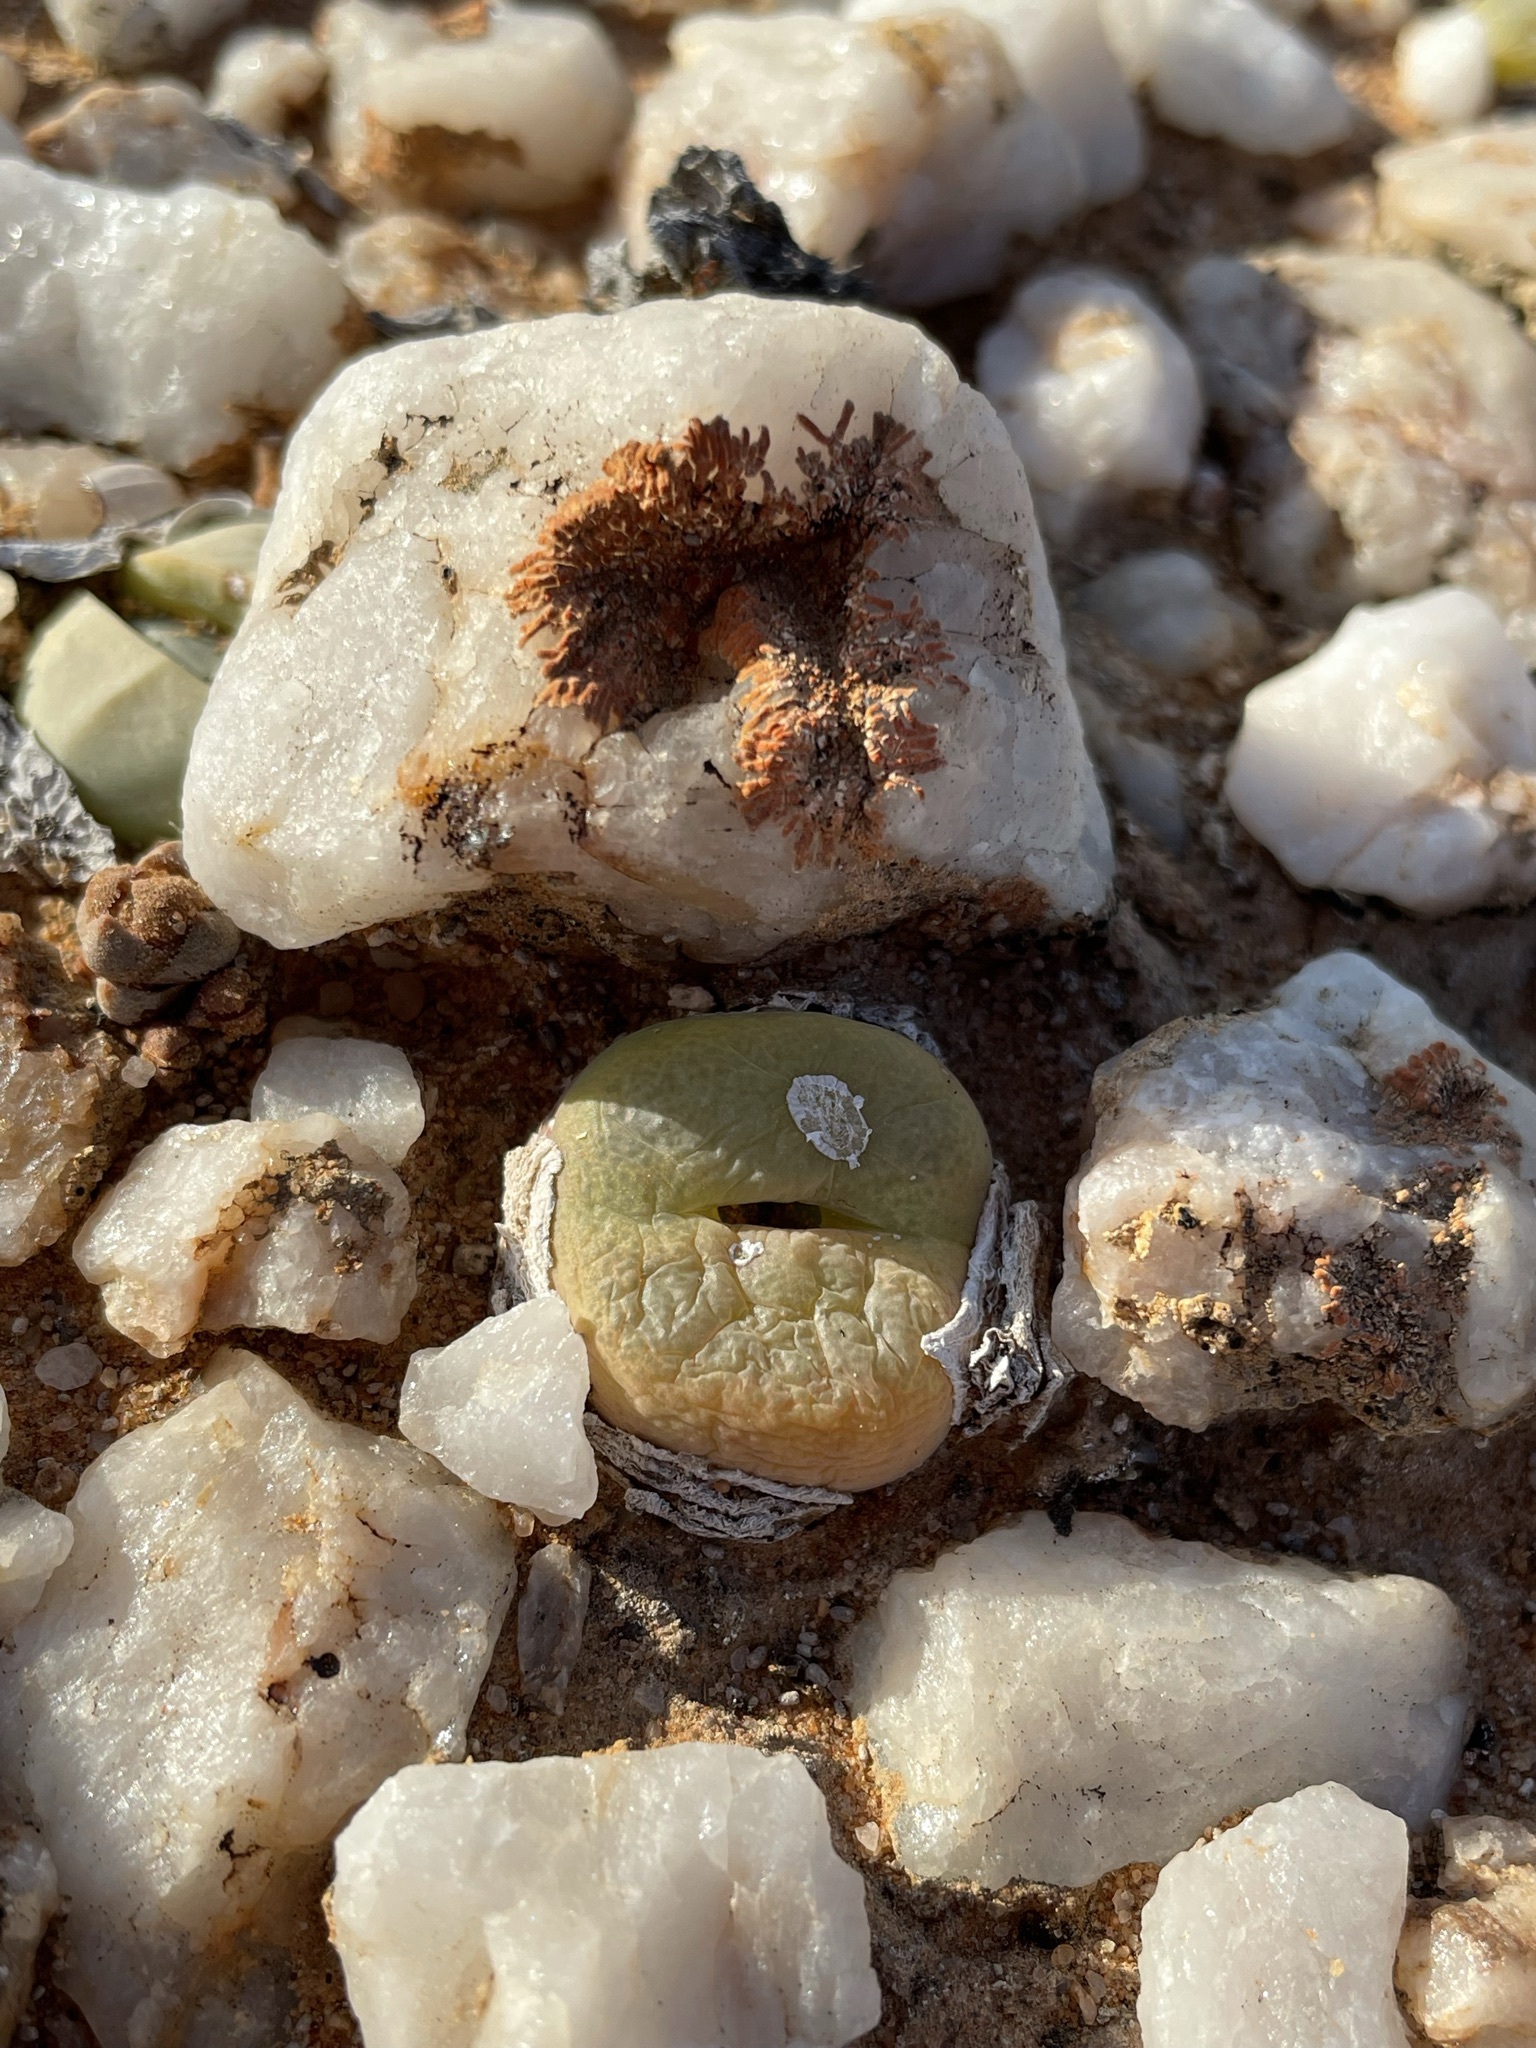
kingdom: Plantae
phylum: Tracheophyta
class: Magnoliopsida
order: Caryophyllales
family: Aizoaceae
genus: Conophytum
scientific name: Conophytum subfenestratum
